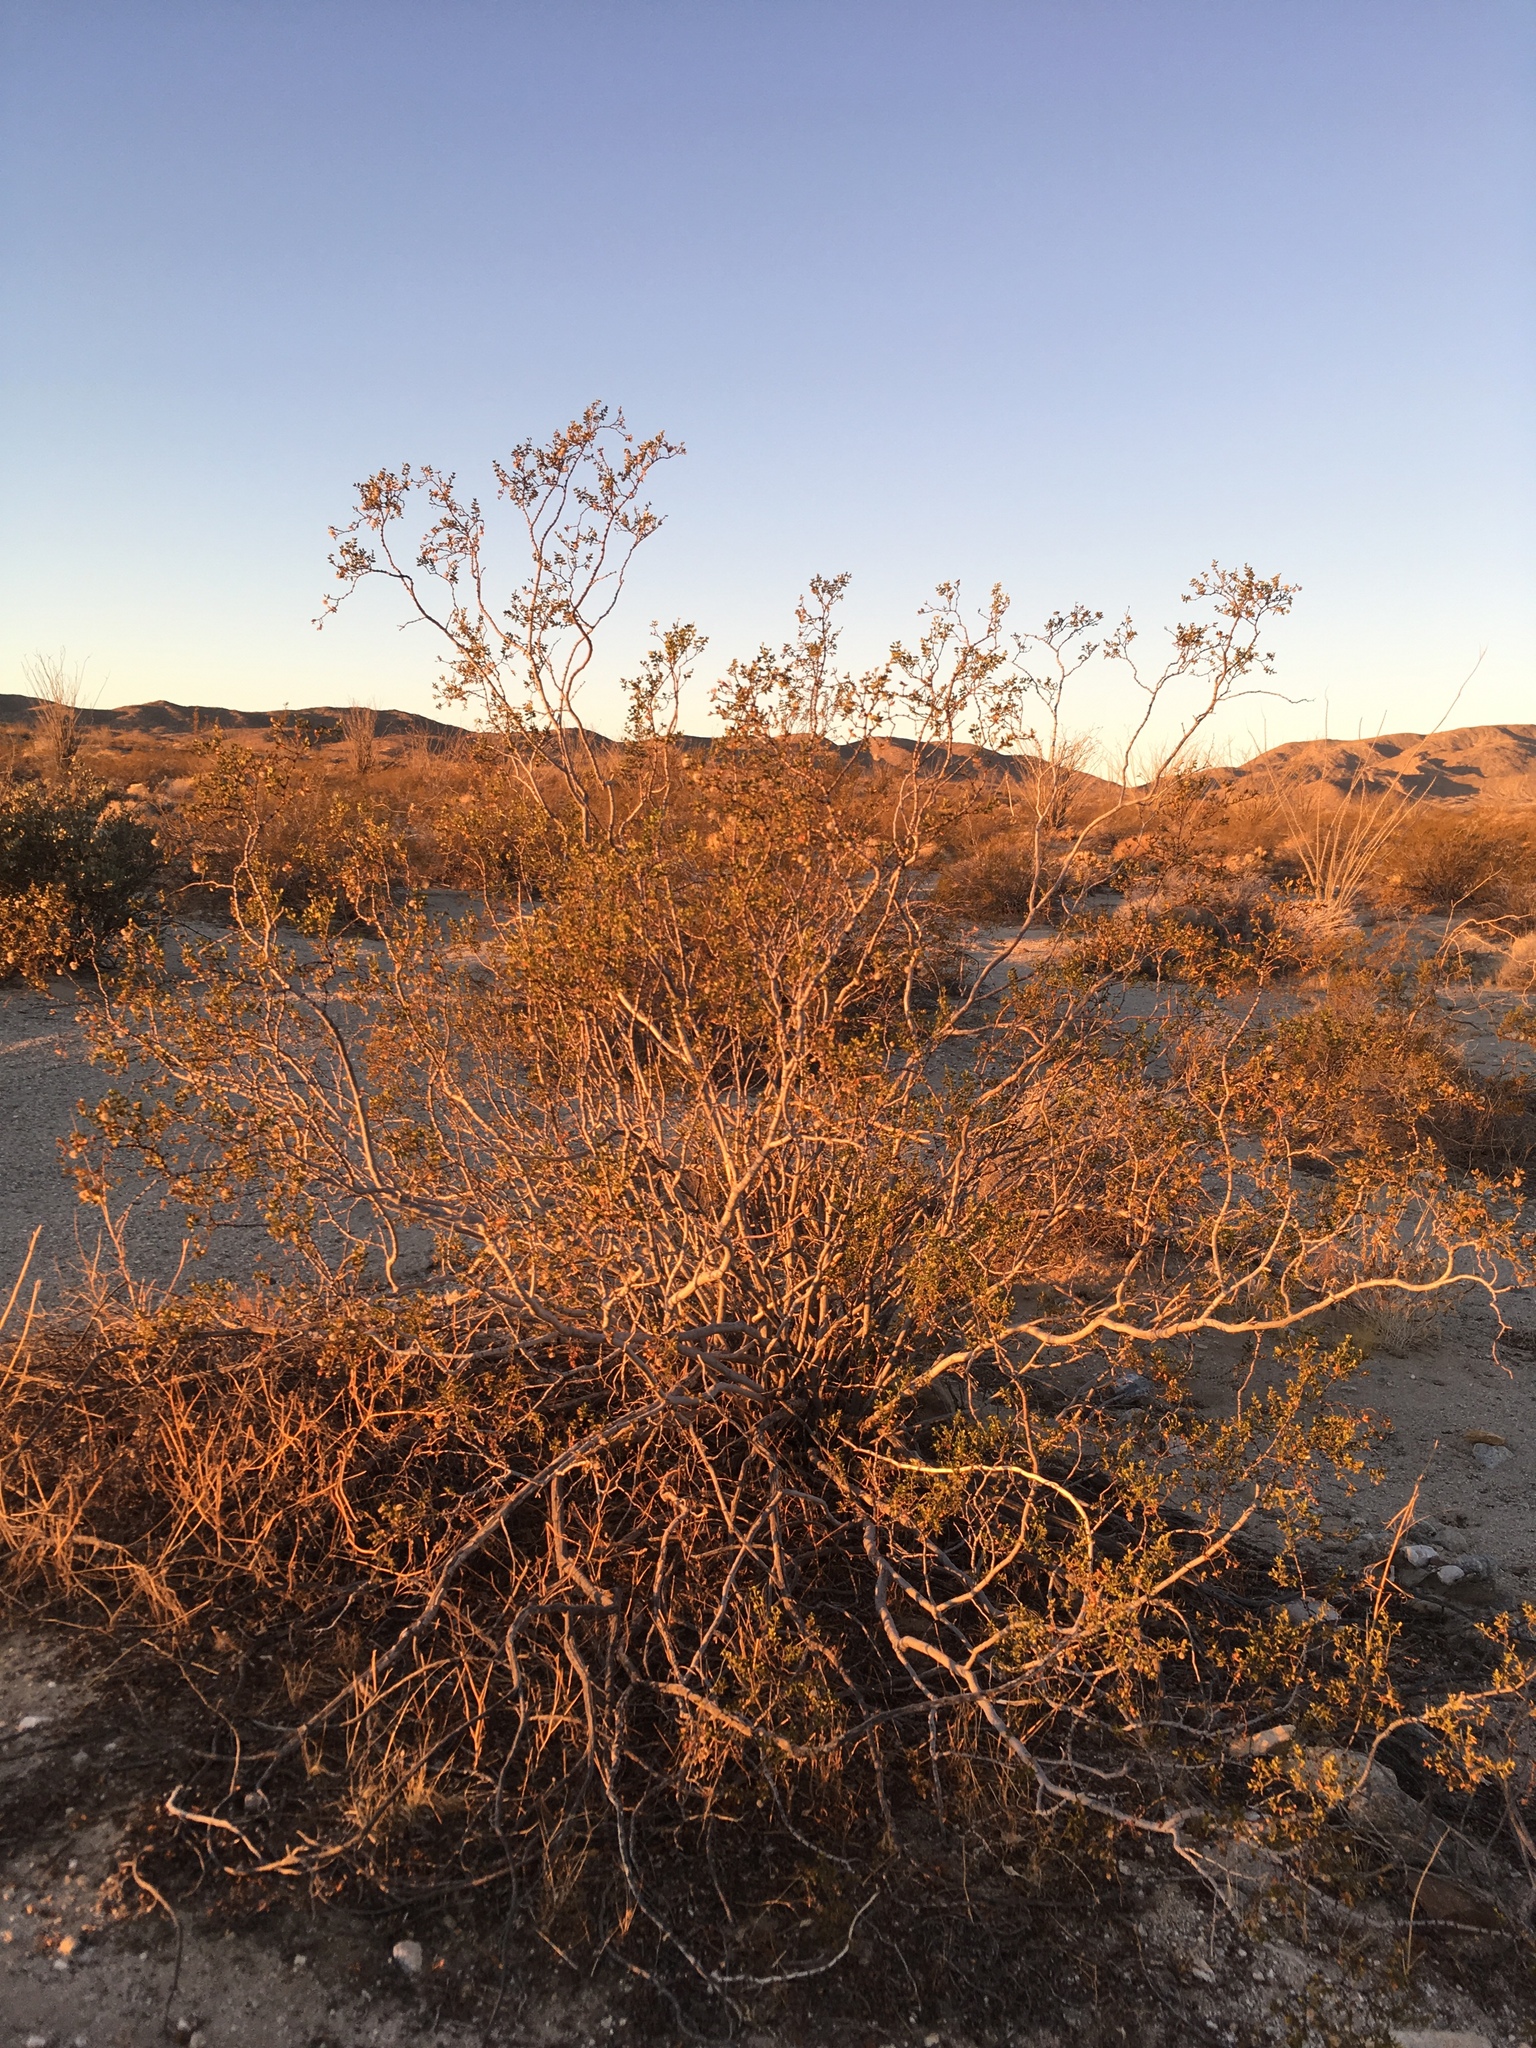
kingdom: Plantae
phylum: Tracheophyta
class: Magnoliopsida
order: Zygophyllales
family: Zygophyllaceae
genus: Larrea
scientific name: Larrea tridentata
